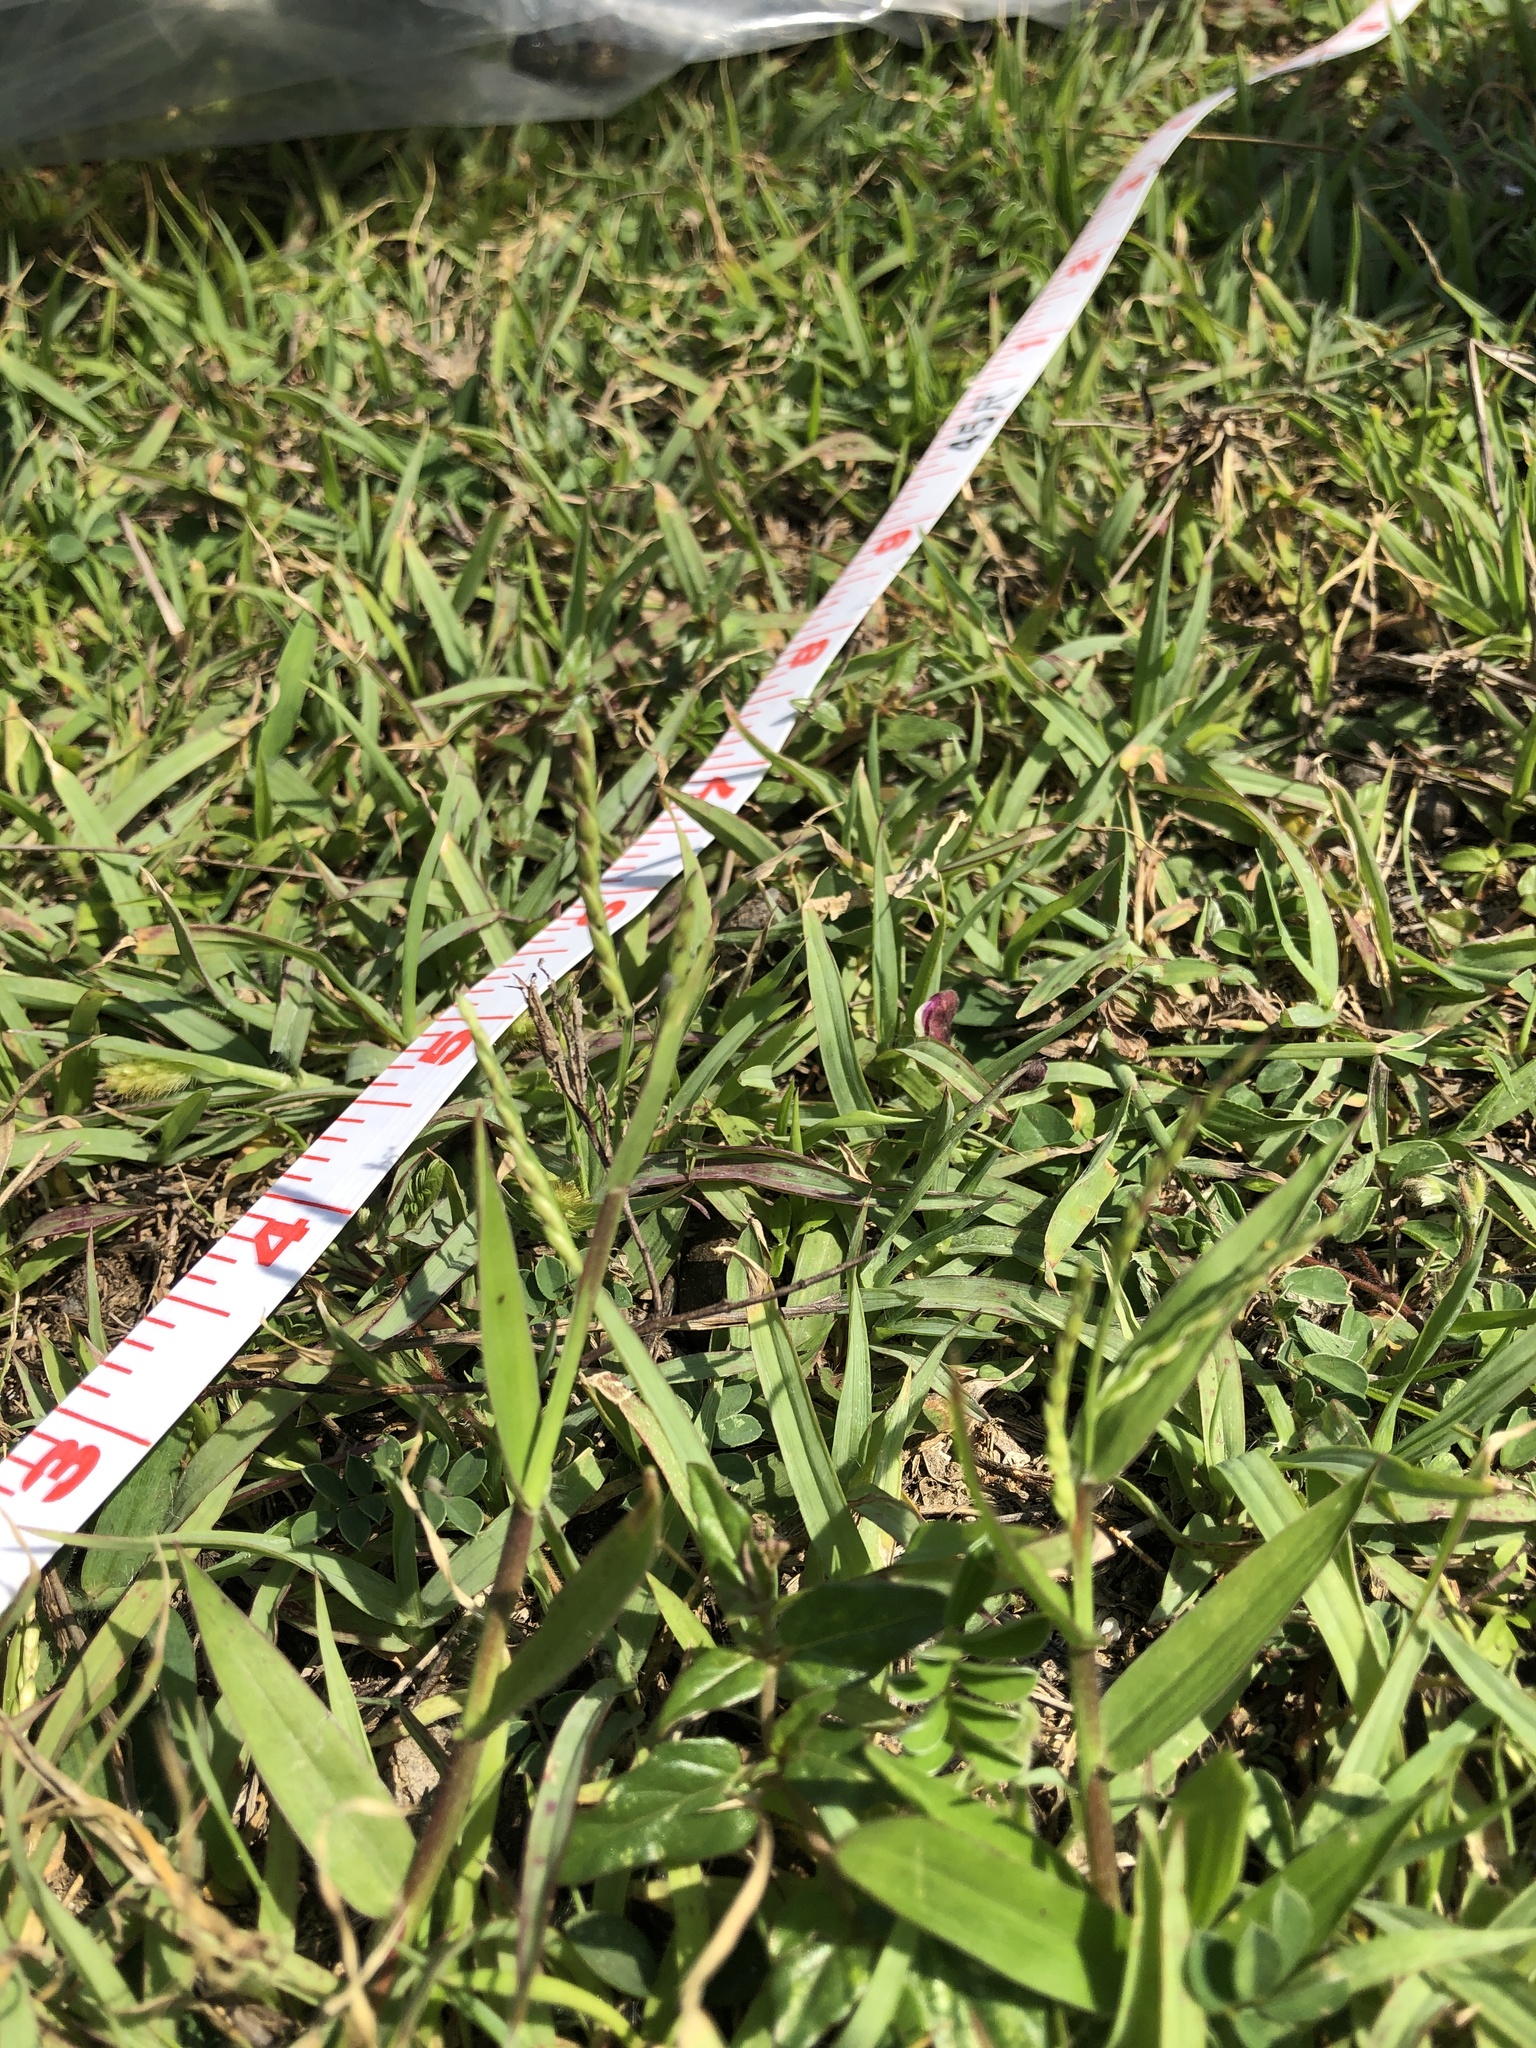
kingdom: Plantae
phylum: Tracheophyta
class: Liliopsida
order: Poales
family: Poaceae
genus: Urochloa
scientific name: Urochloa distachyos
